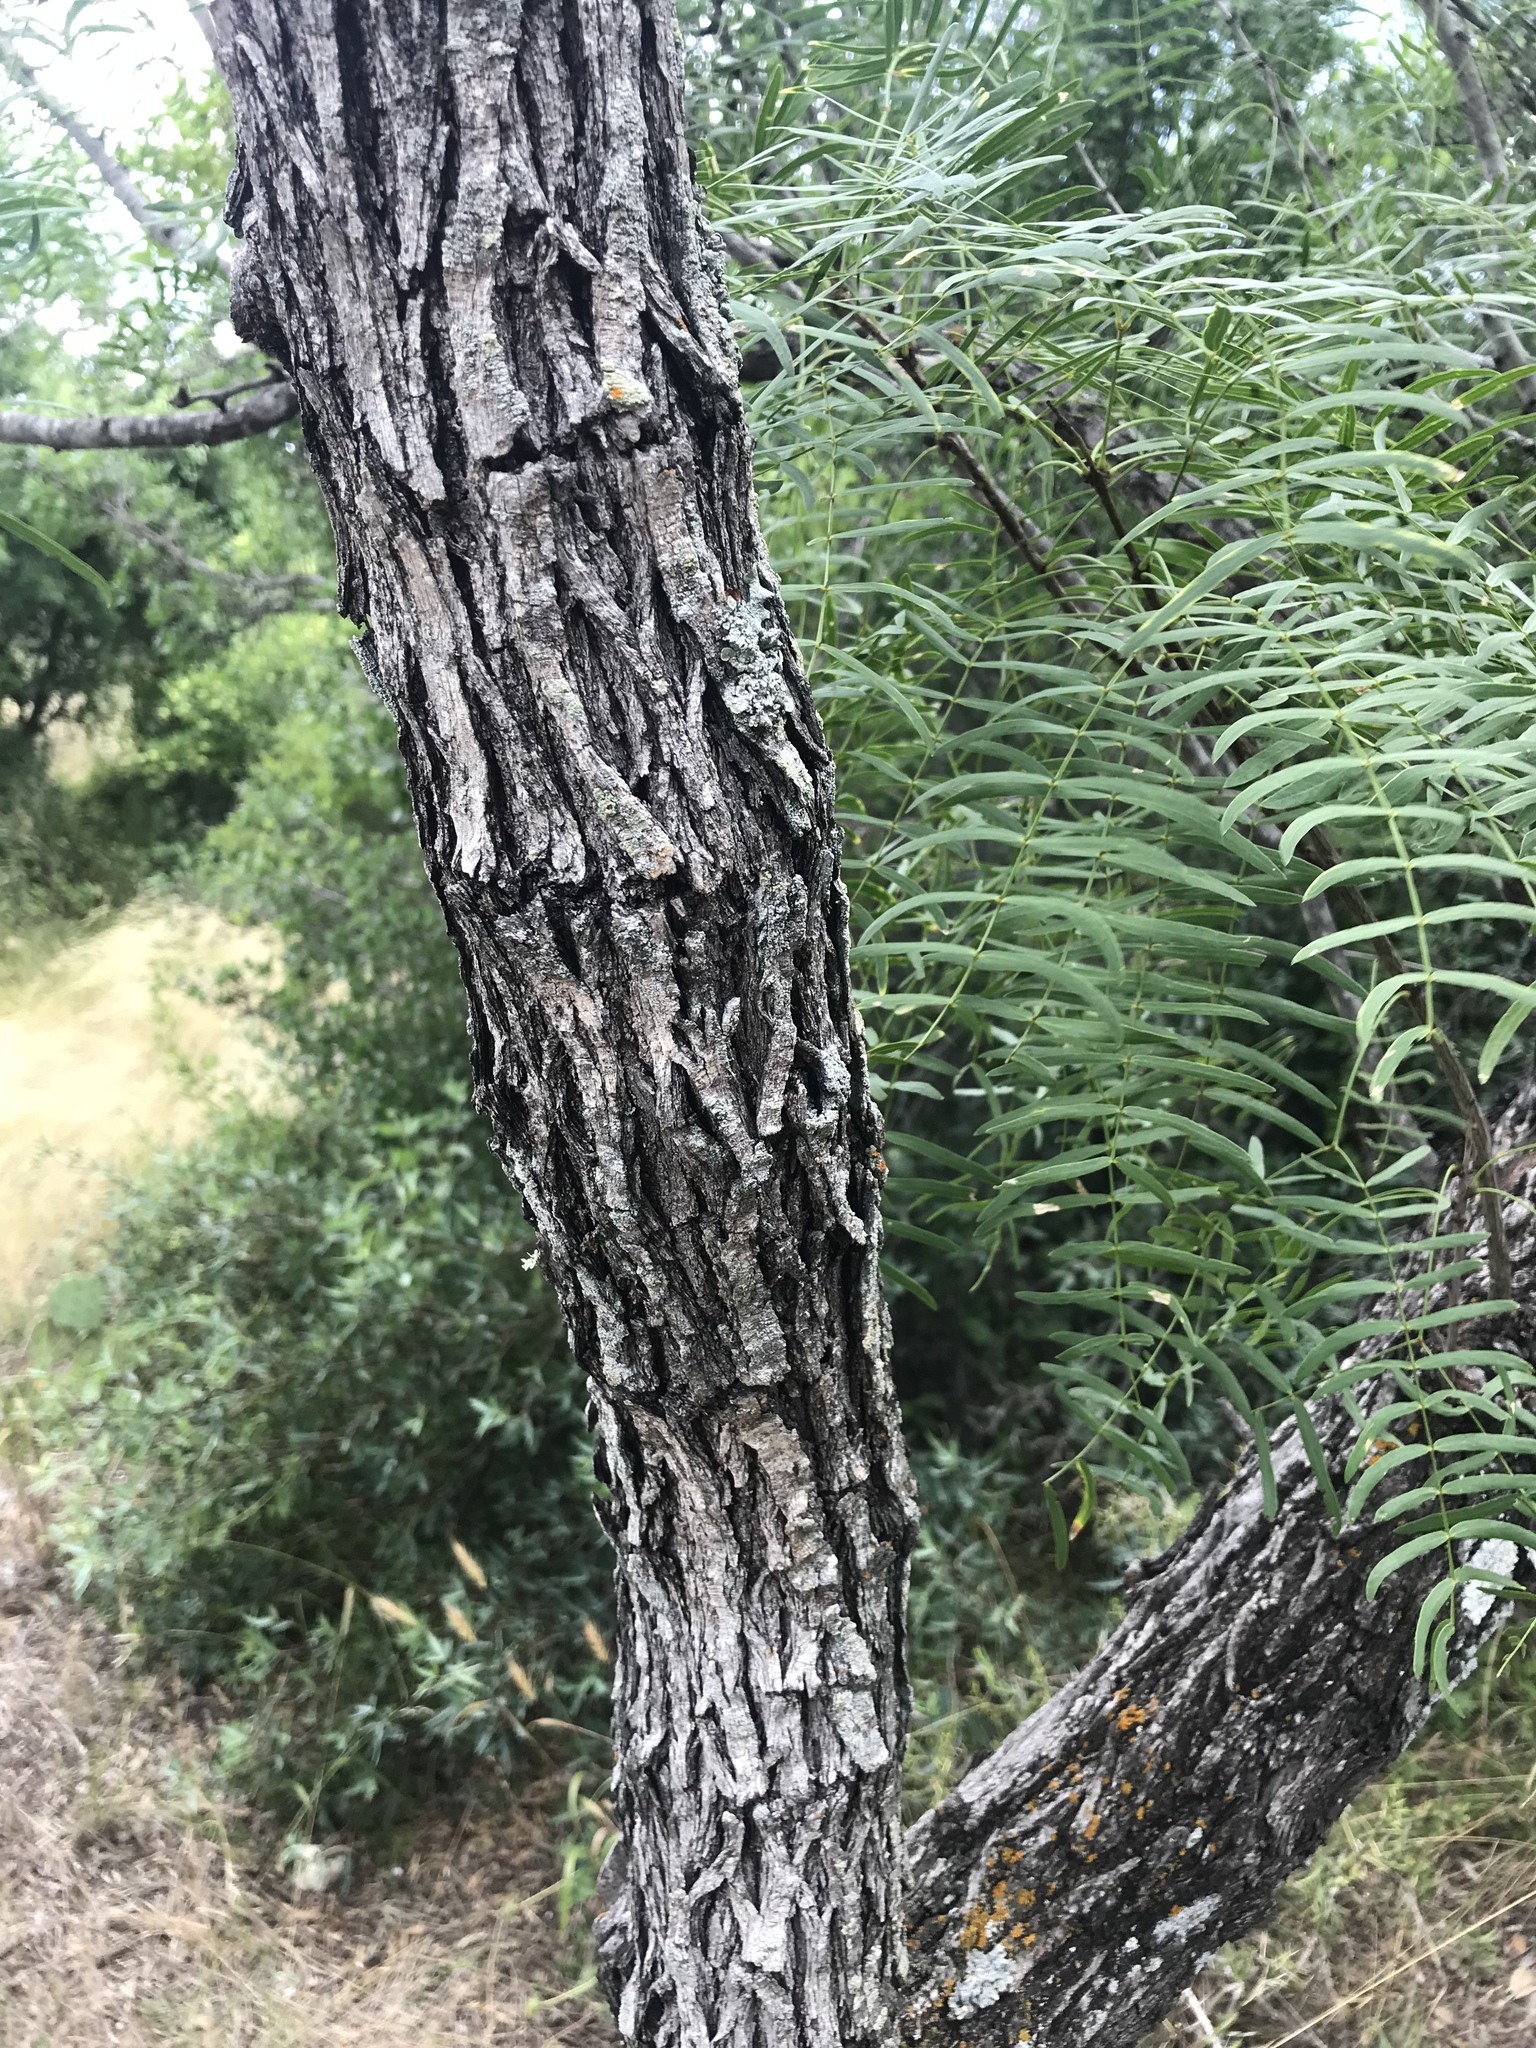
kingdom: Plantae
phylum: Tracheophyta
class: Magnoliopsida
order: Fabales
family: Fabaceae
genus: Prosopis
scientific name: Prosopis glandulosa
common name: Honey mesquite
